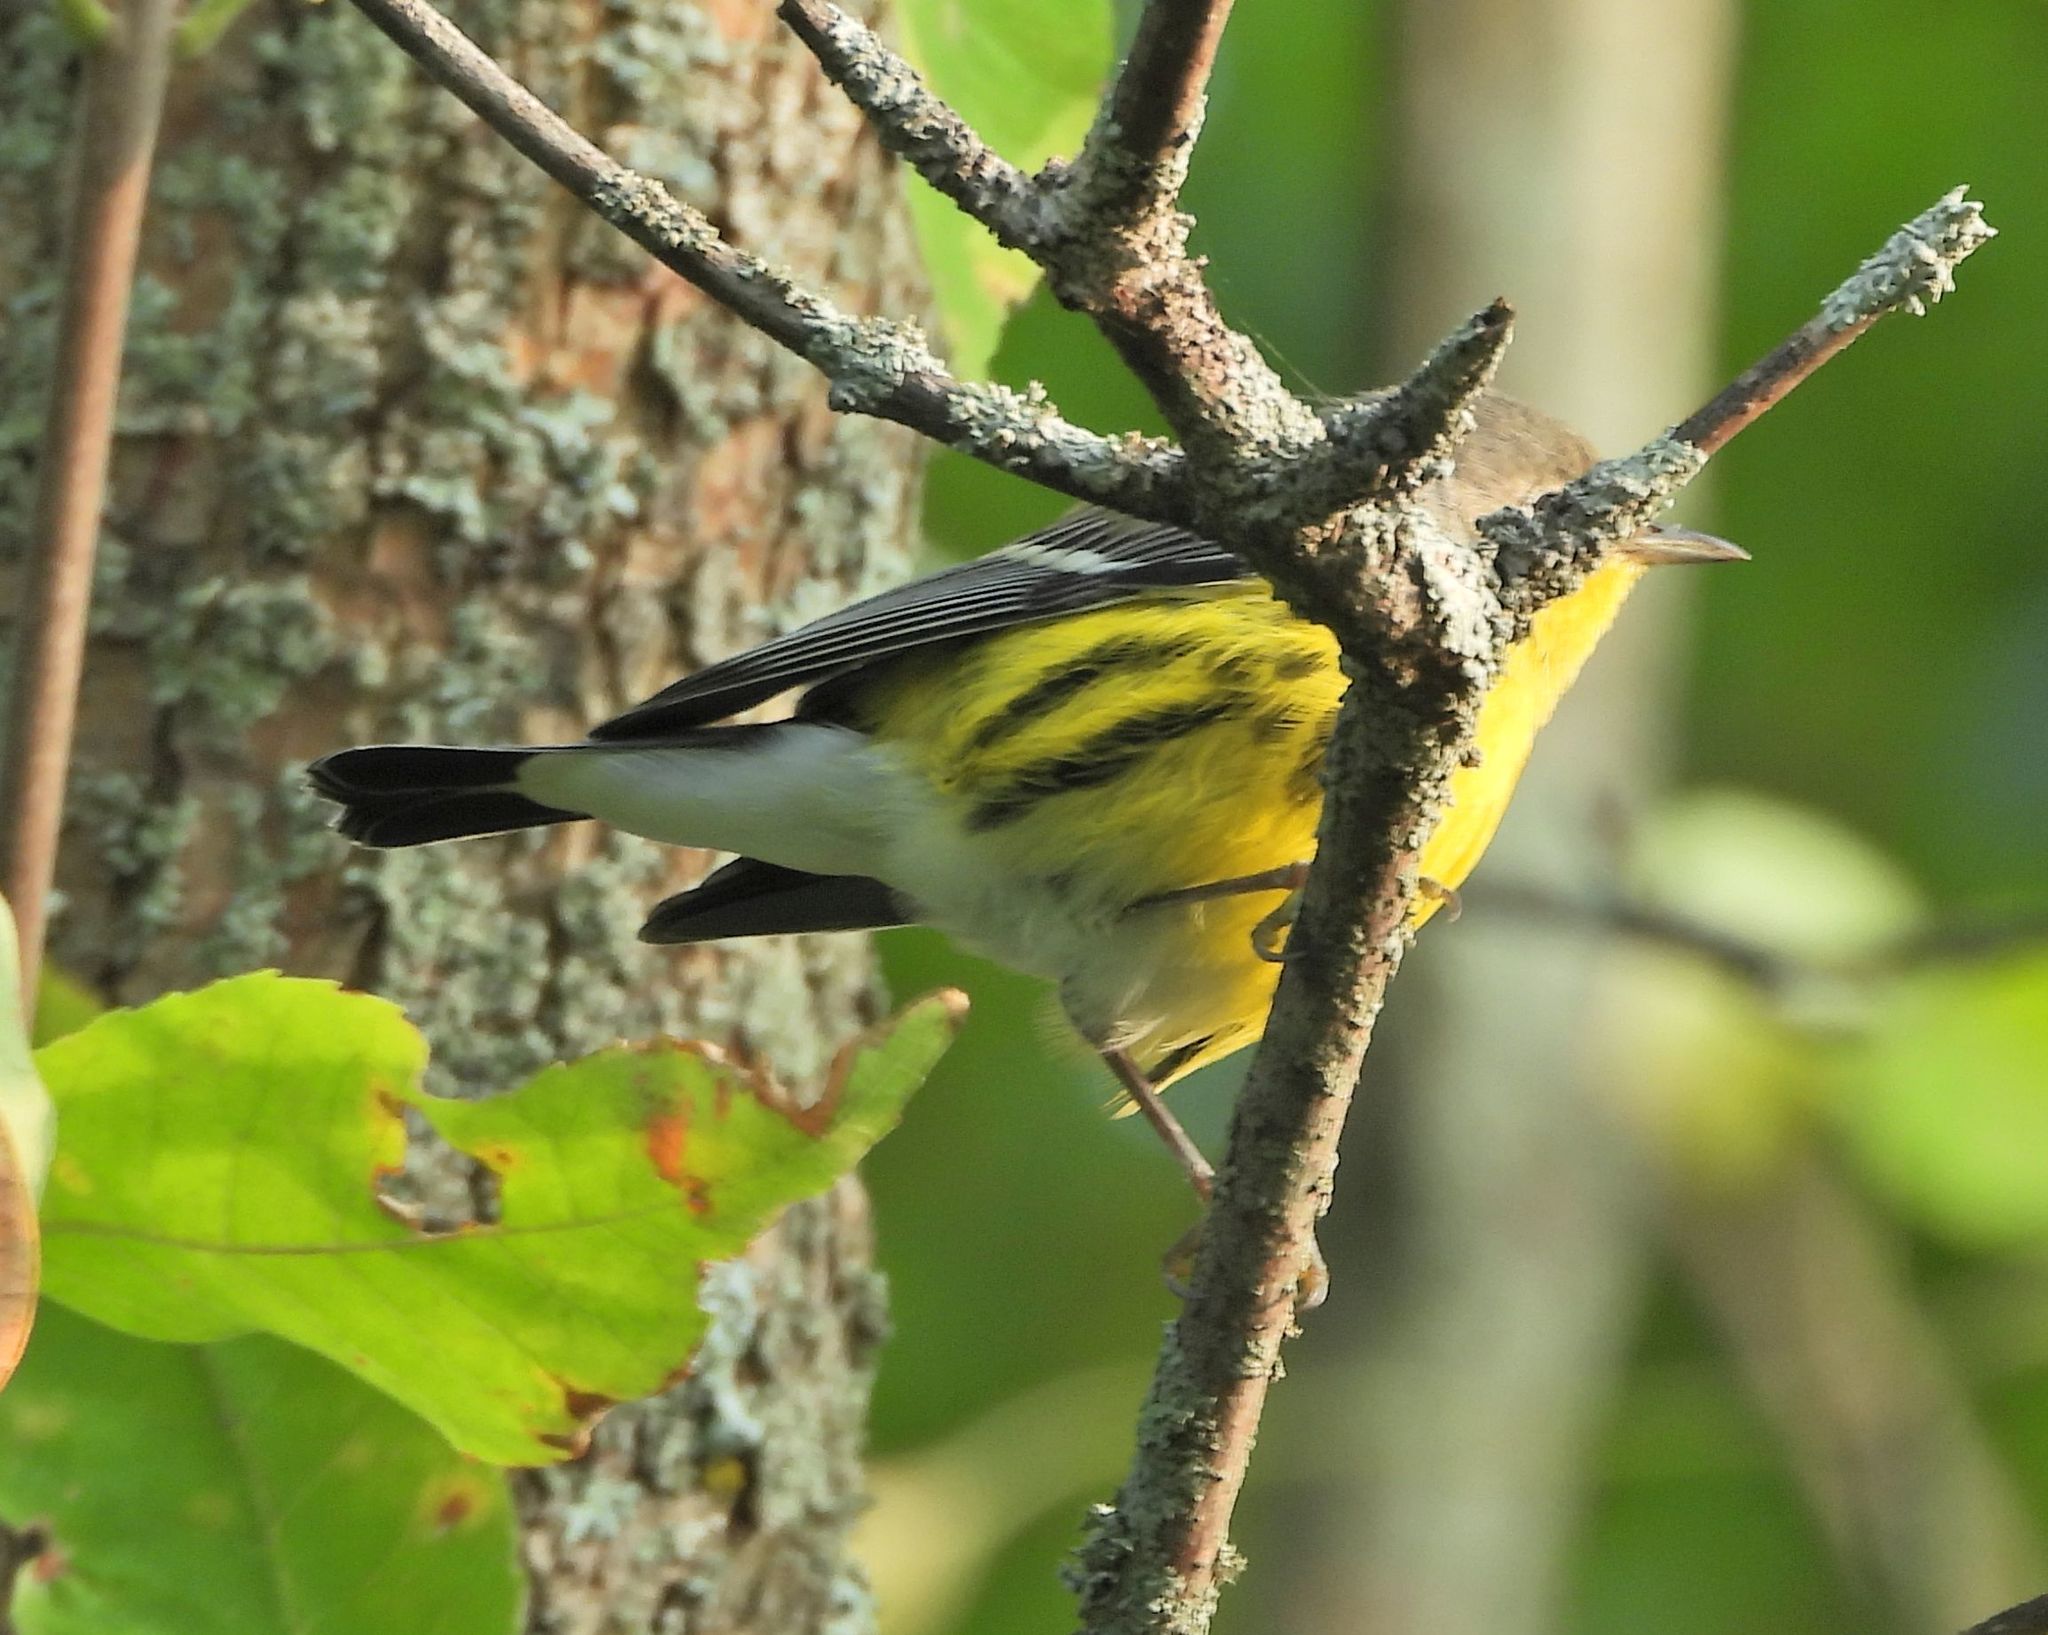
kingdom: Animalia
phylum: Chordata
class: Aves
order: Passeriformes
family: Parulidae
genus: Setophaga
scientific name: Setophaga magnolia
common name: Magnolia warbler
